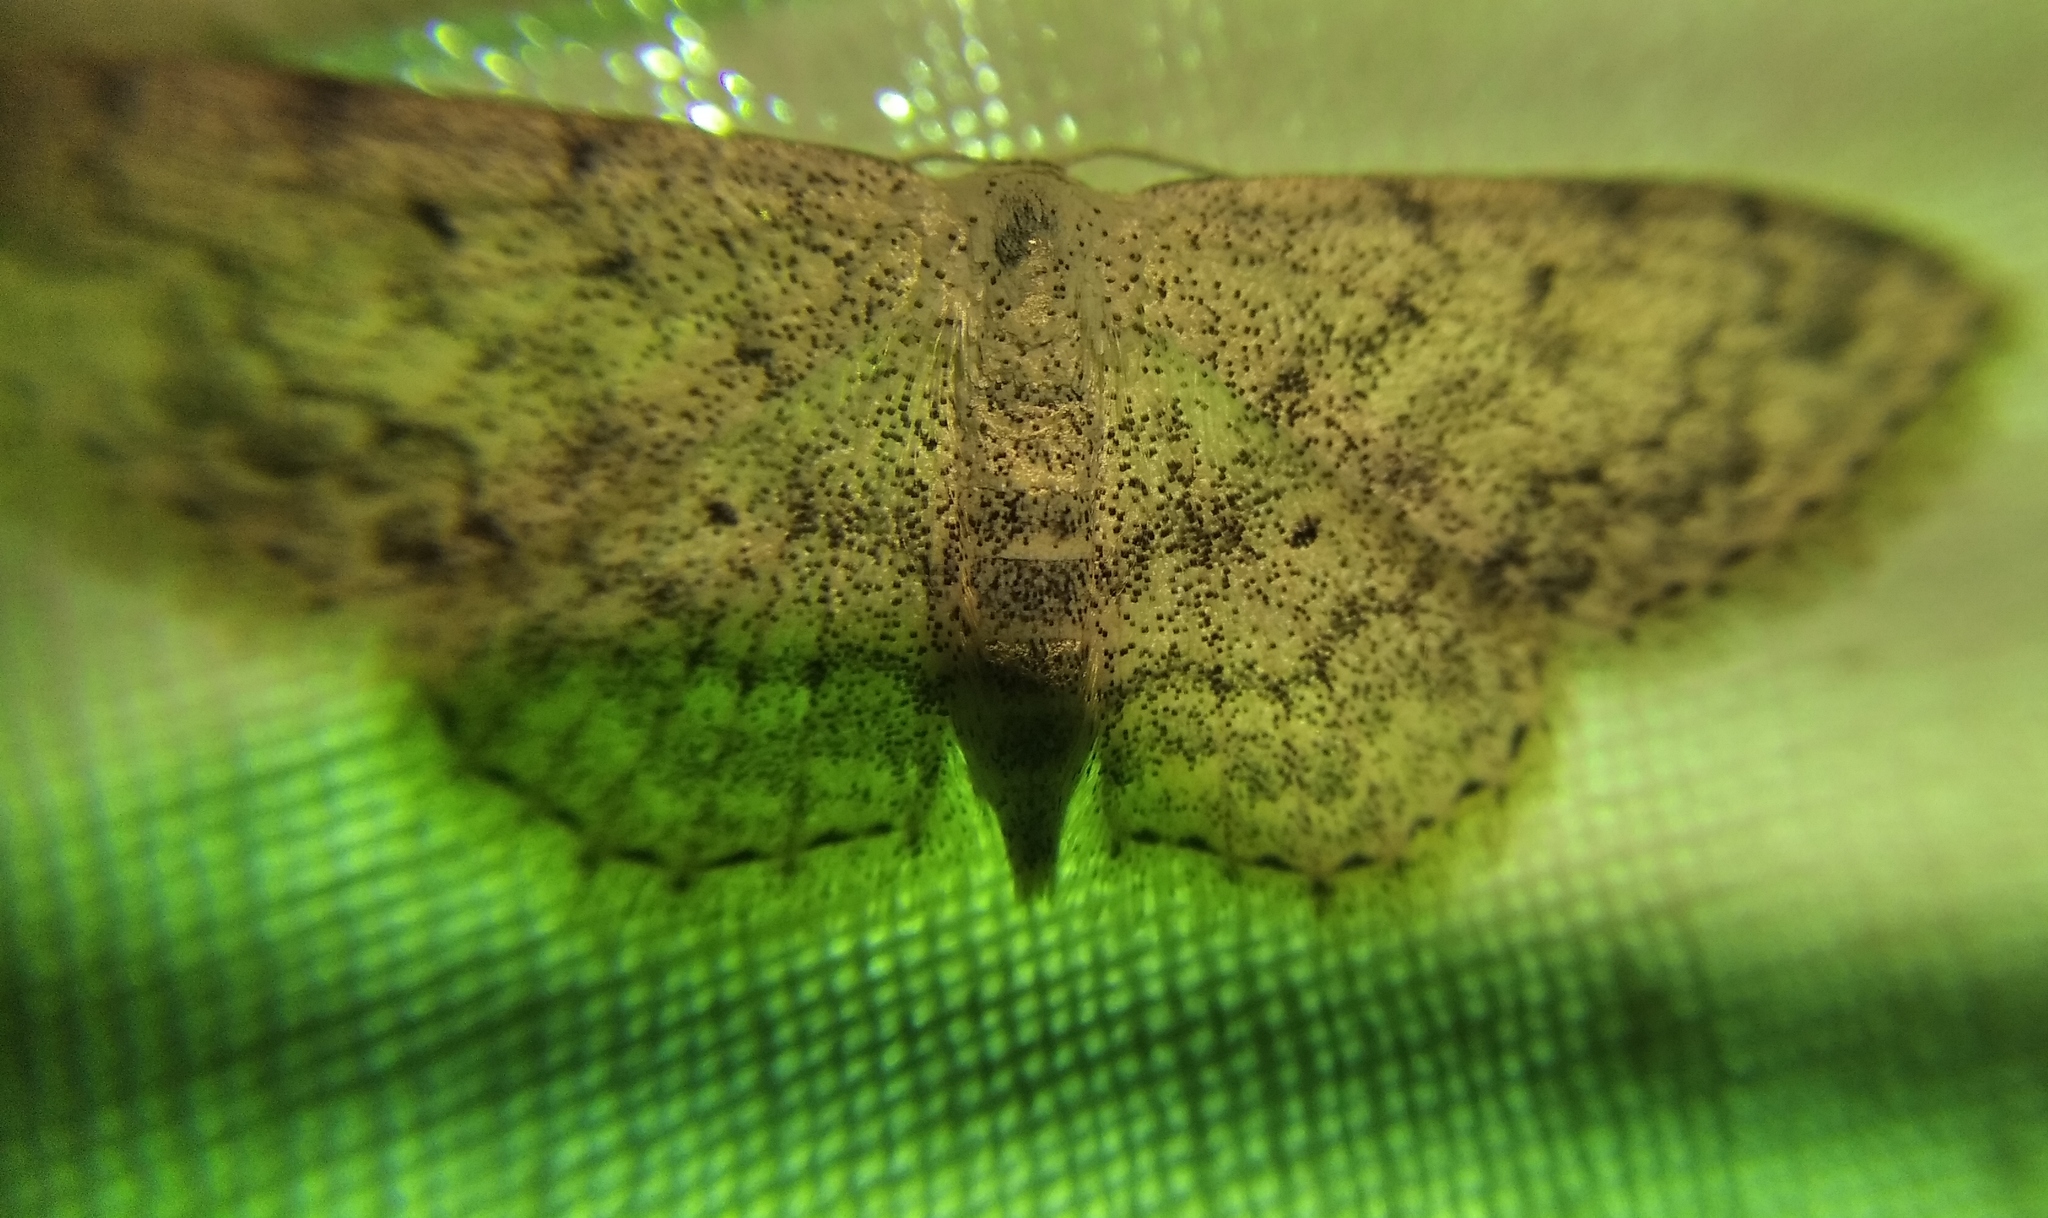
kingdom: Animalia
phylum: Arthropoda
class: Insecta
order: Lepidoptera
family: Geometridae
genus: Scopula
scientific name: Scopula marginepunctata
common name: Mullein wave
